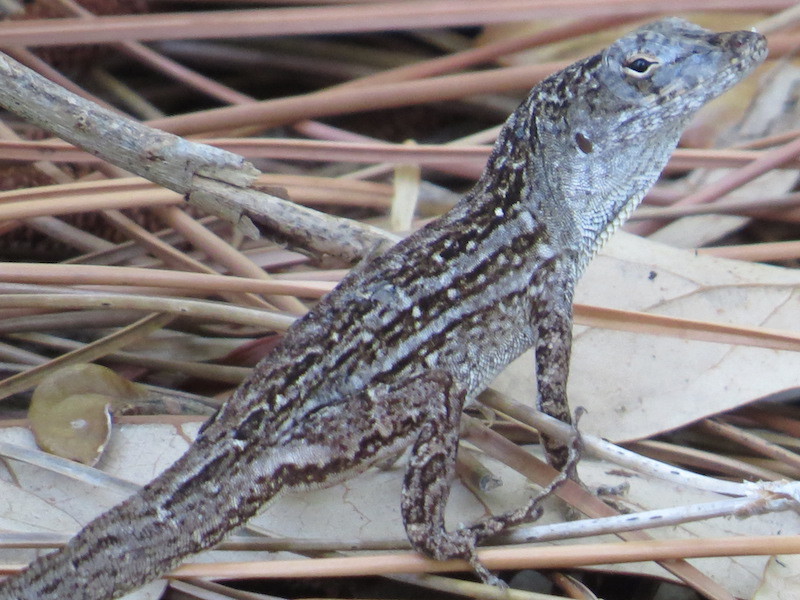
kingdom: Animalia
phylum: Chordata
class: Squamata
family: Dactyloidae
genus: Anolis
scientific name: Anolis sagrei
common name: Brown anole
